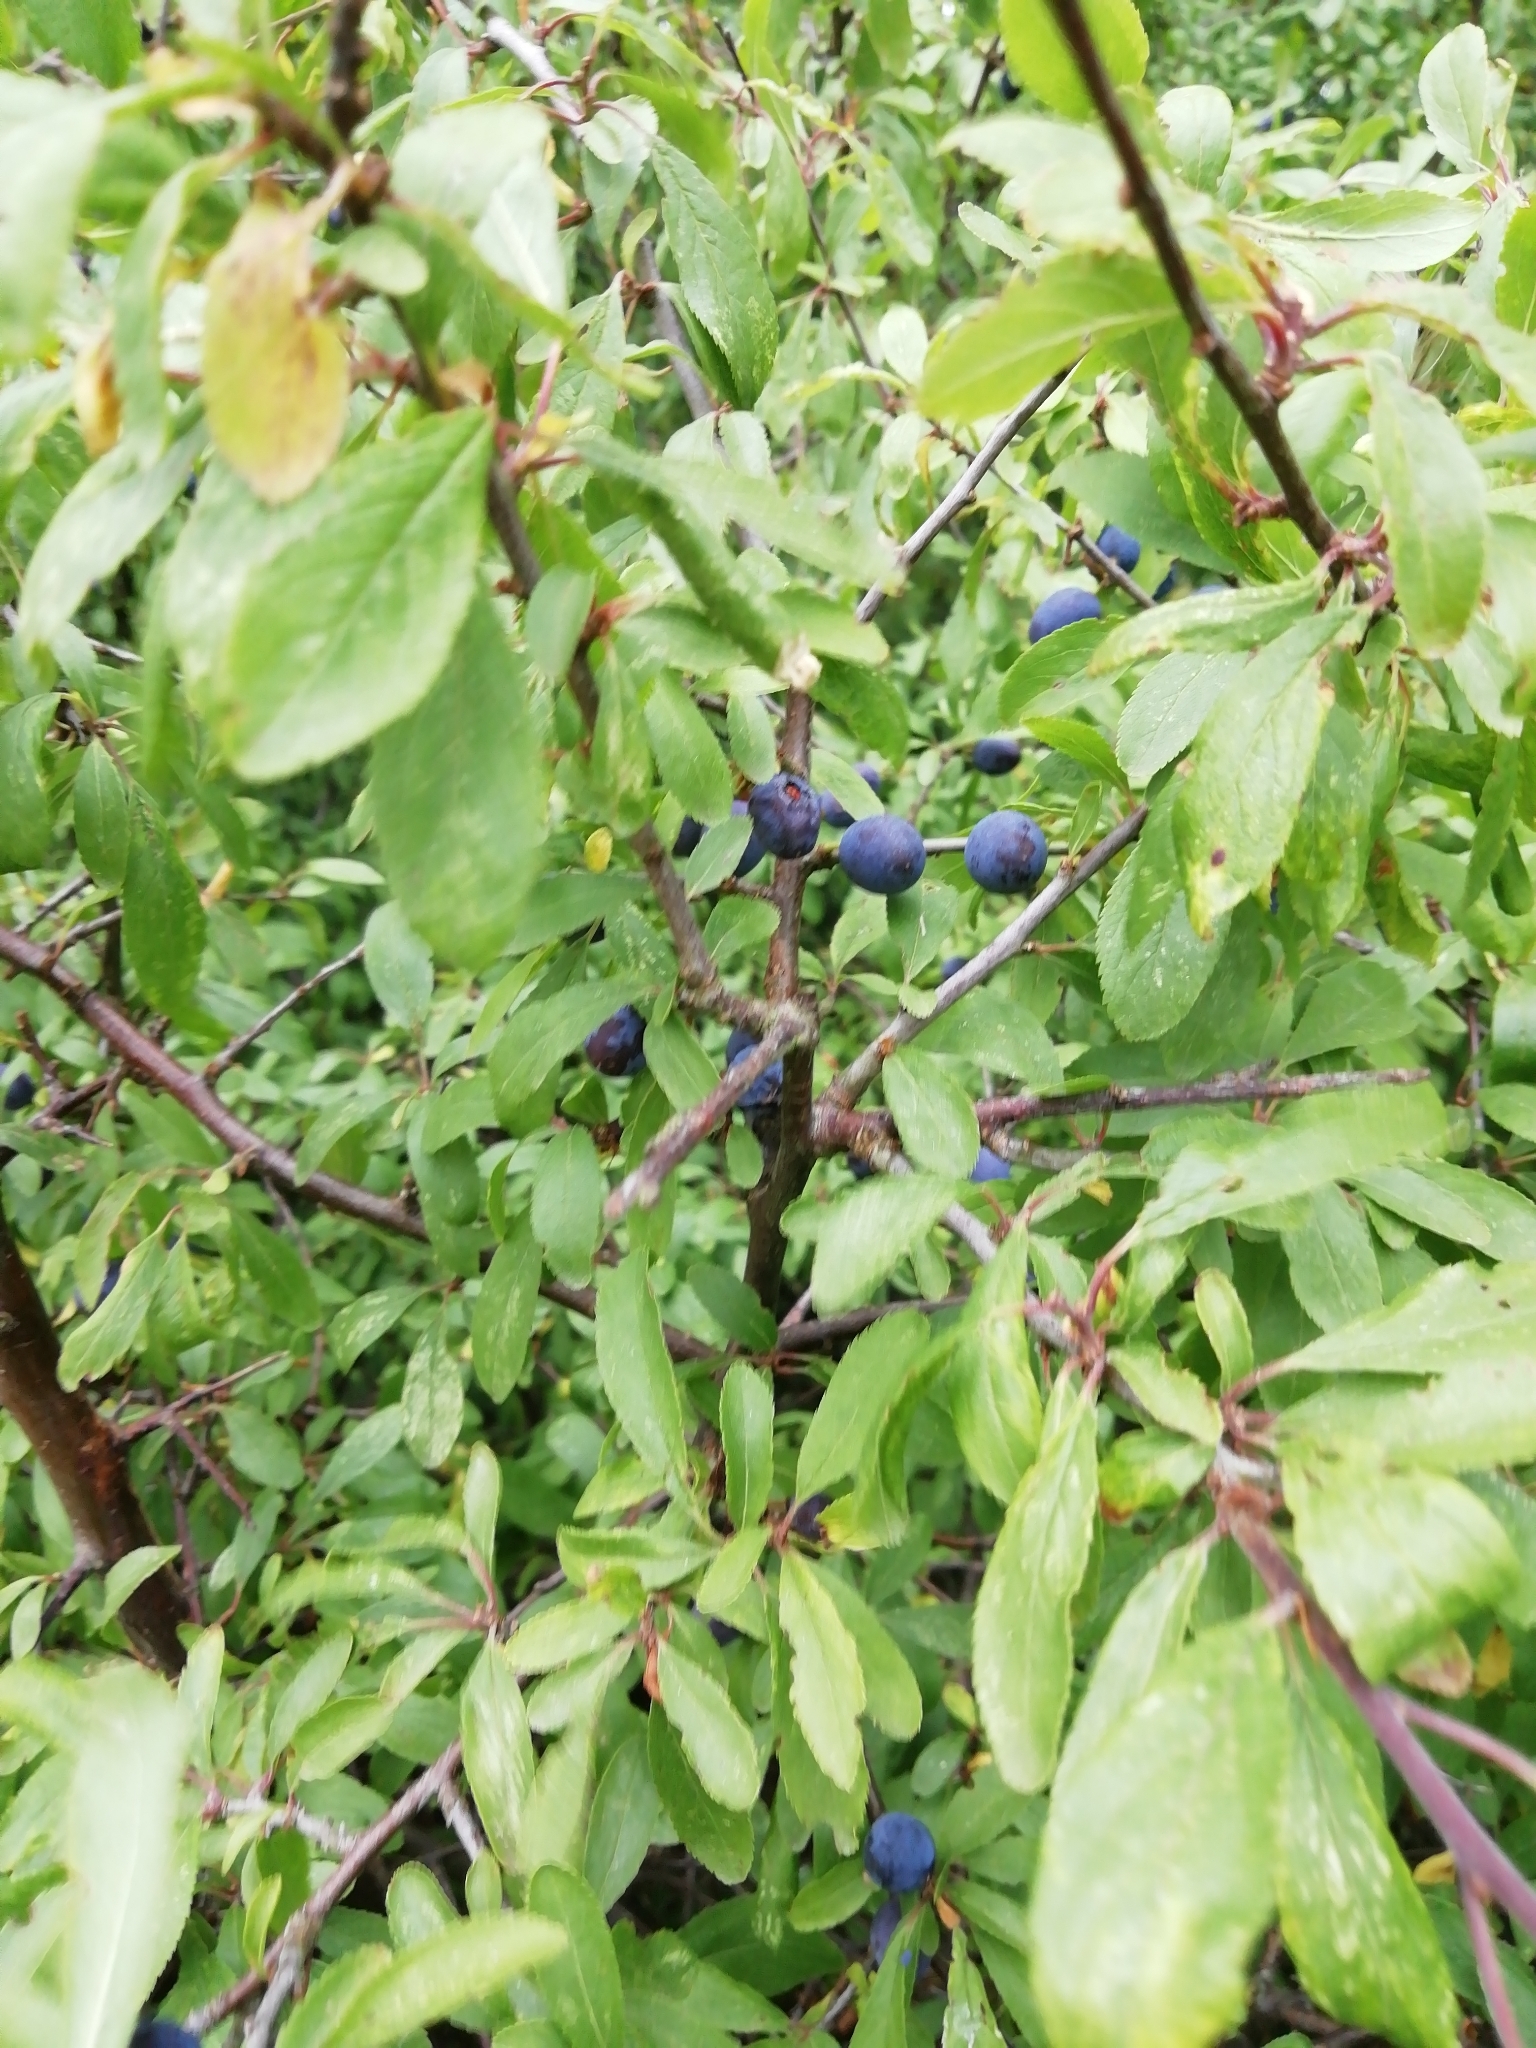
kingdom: Plantae
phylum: Tracheophyta
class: Magnoliopsida
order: Rosales
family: Rosaceae
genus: Prunus
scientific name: Prunus spinosa
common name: Blackthorn
